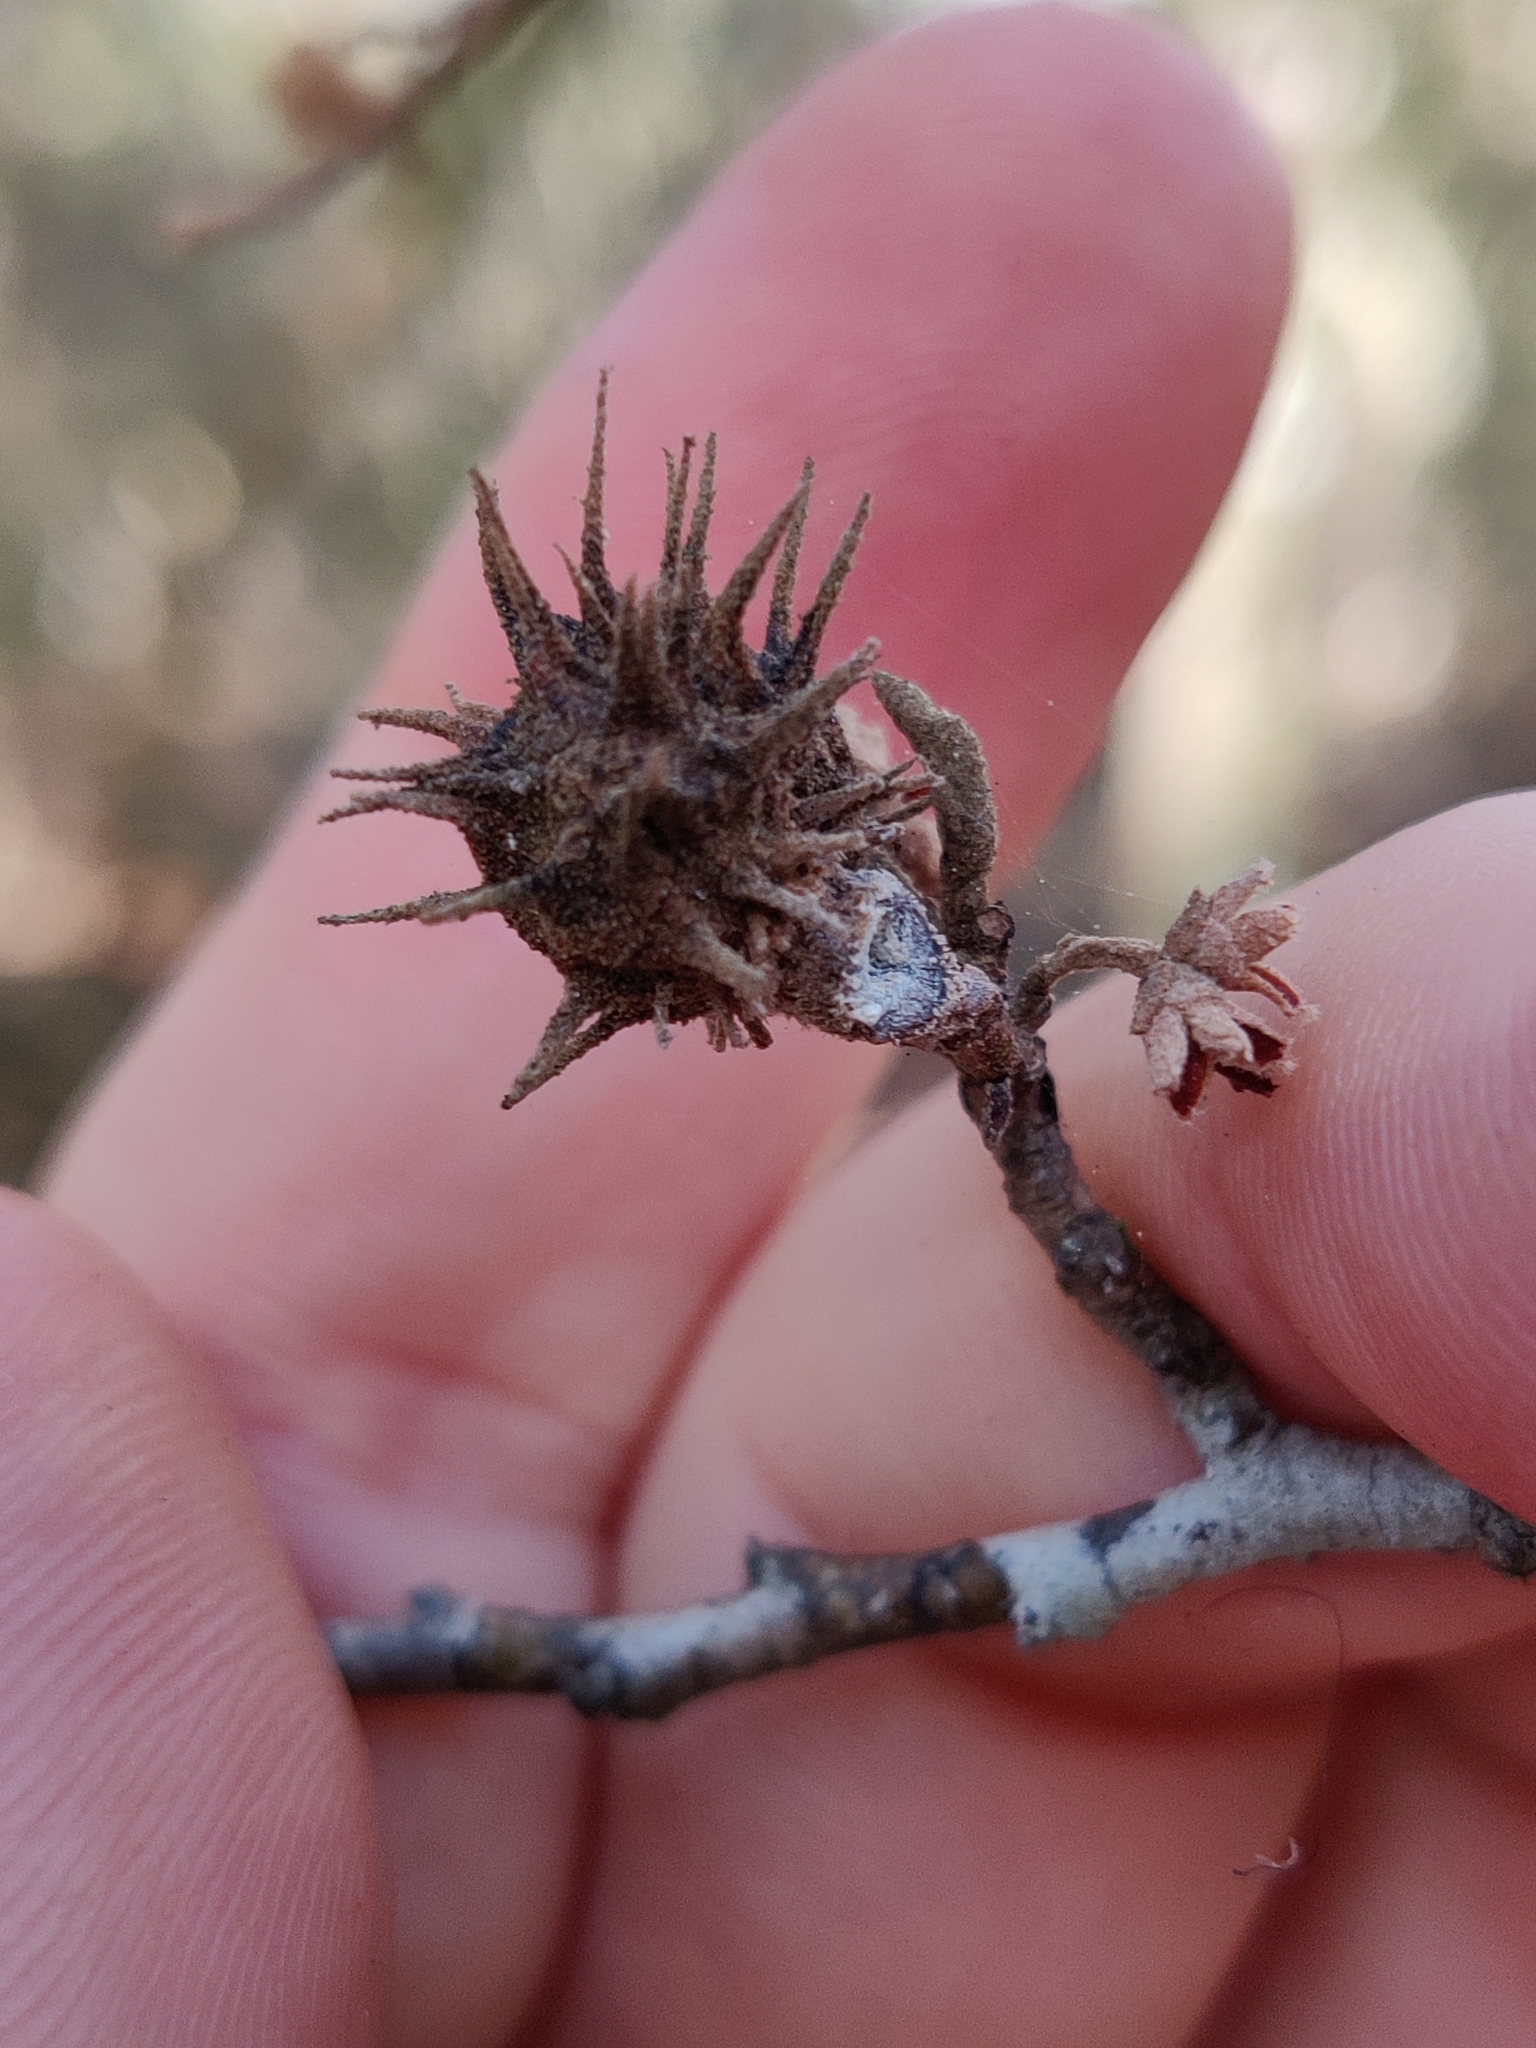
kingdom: Animalia
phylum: Arthropoda
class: Insecta
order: Hemiptera
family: Aphididae
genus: Hamamelistes
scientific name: Hamamelistes spinosus
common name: Witch hazel gall aphid
